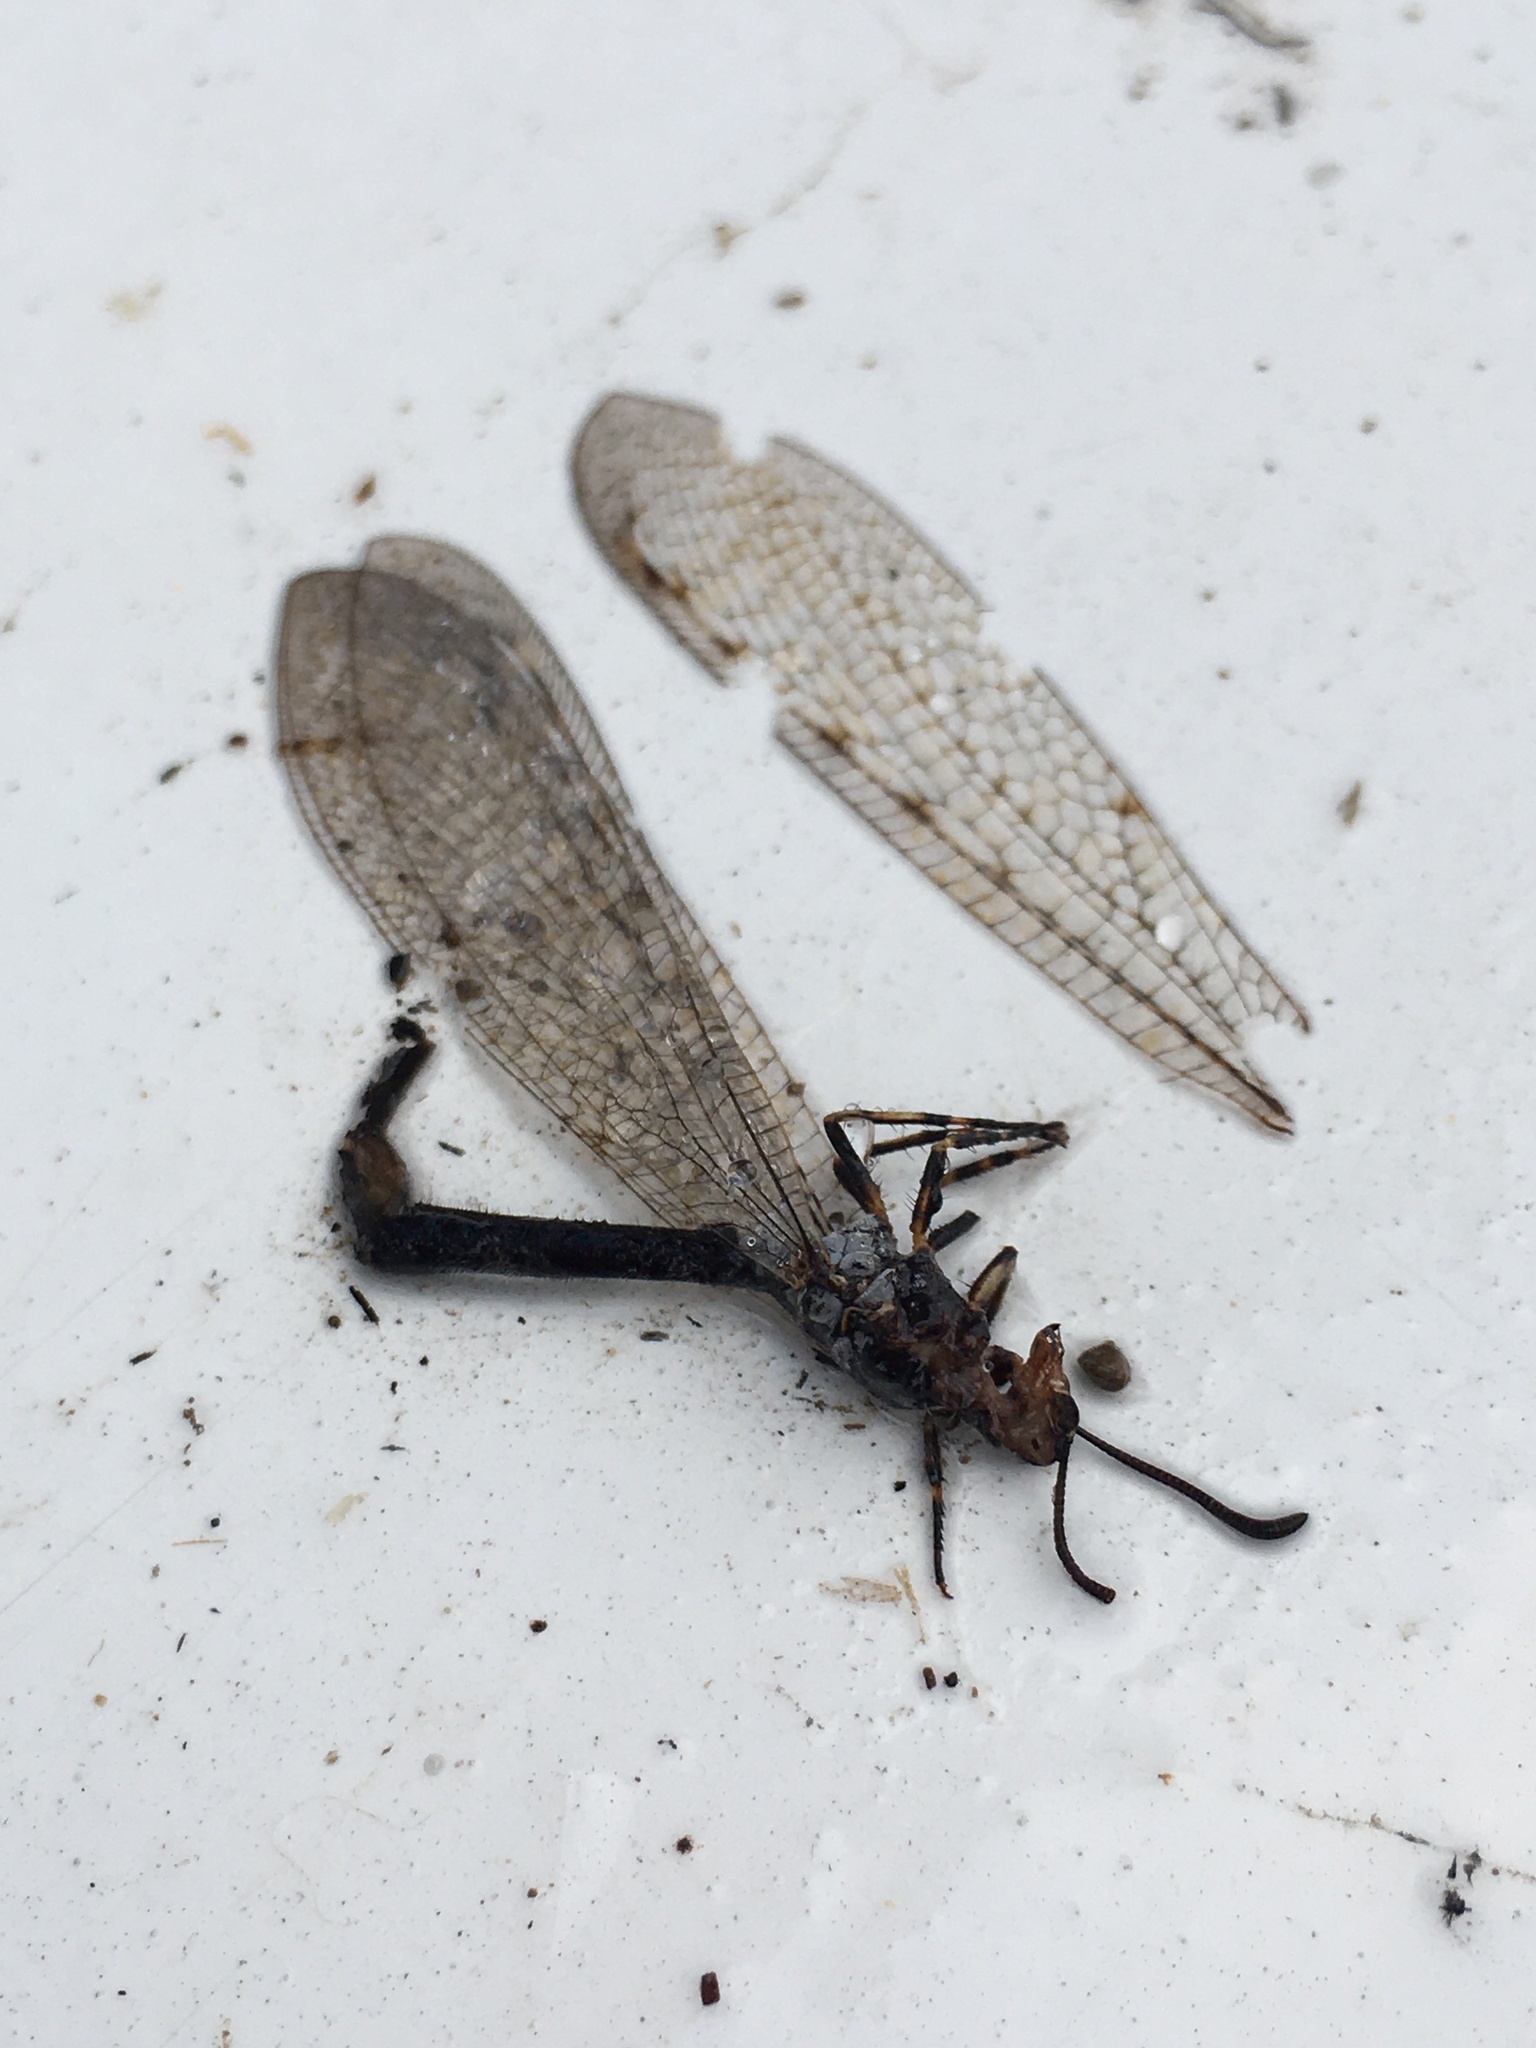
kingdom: Animalia
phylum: Arthropoda
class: Insecta
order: Neuroptera
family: Myrmeleontidae
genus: Myrmeleon
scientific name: Myrmeleon exitialis
